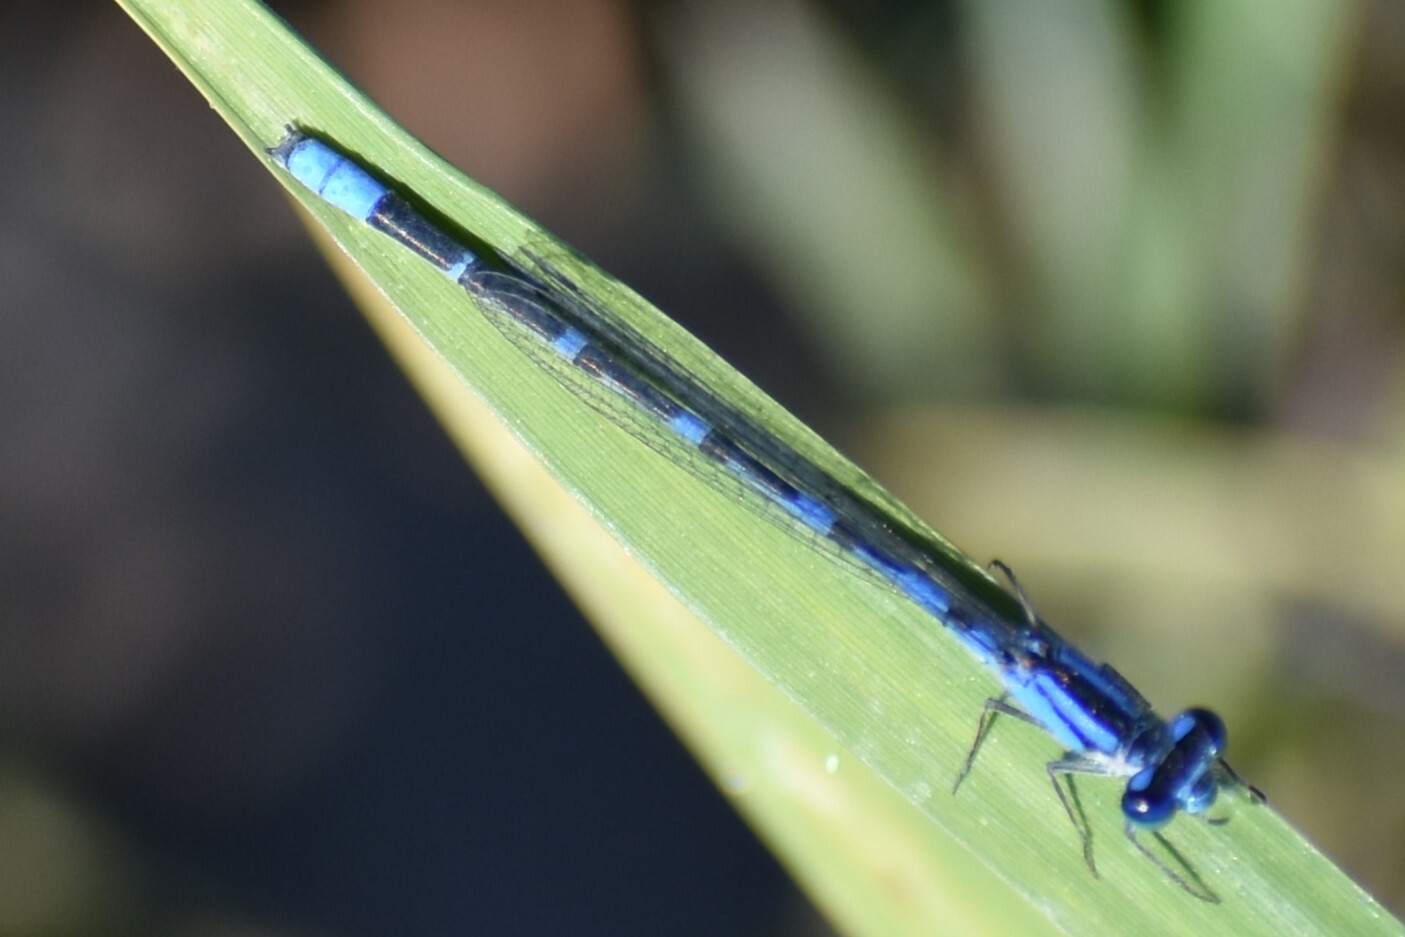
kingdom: Animalia
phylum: Arthropoda
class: Insecta
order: Odonata
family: Coenagrionidae
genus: Enallagma
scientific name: Enallagma praevarum
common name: Arroyo bluet
